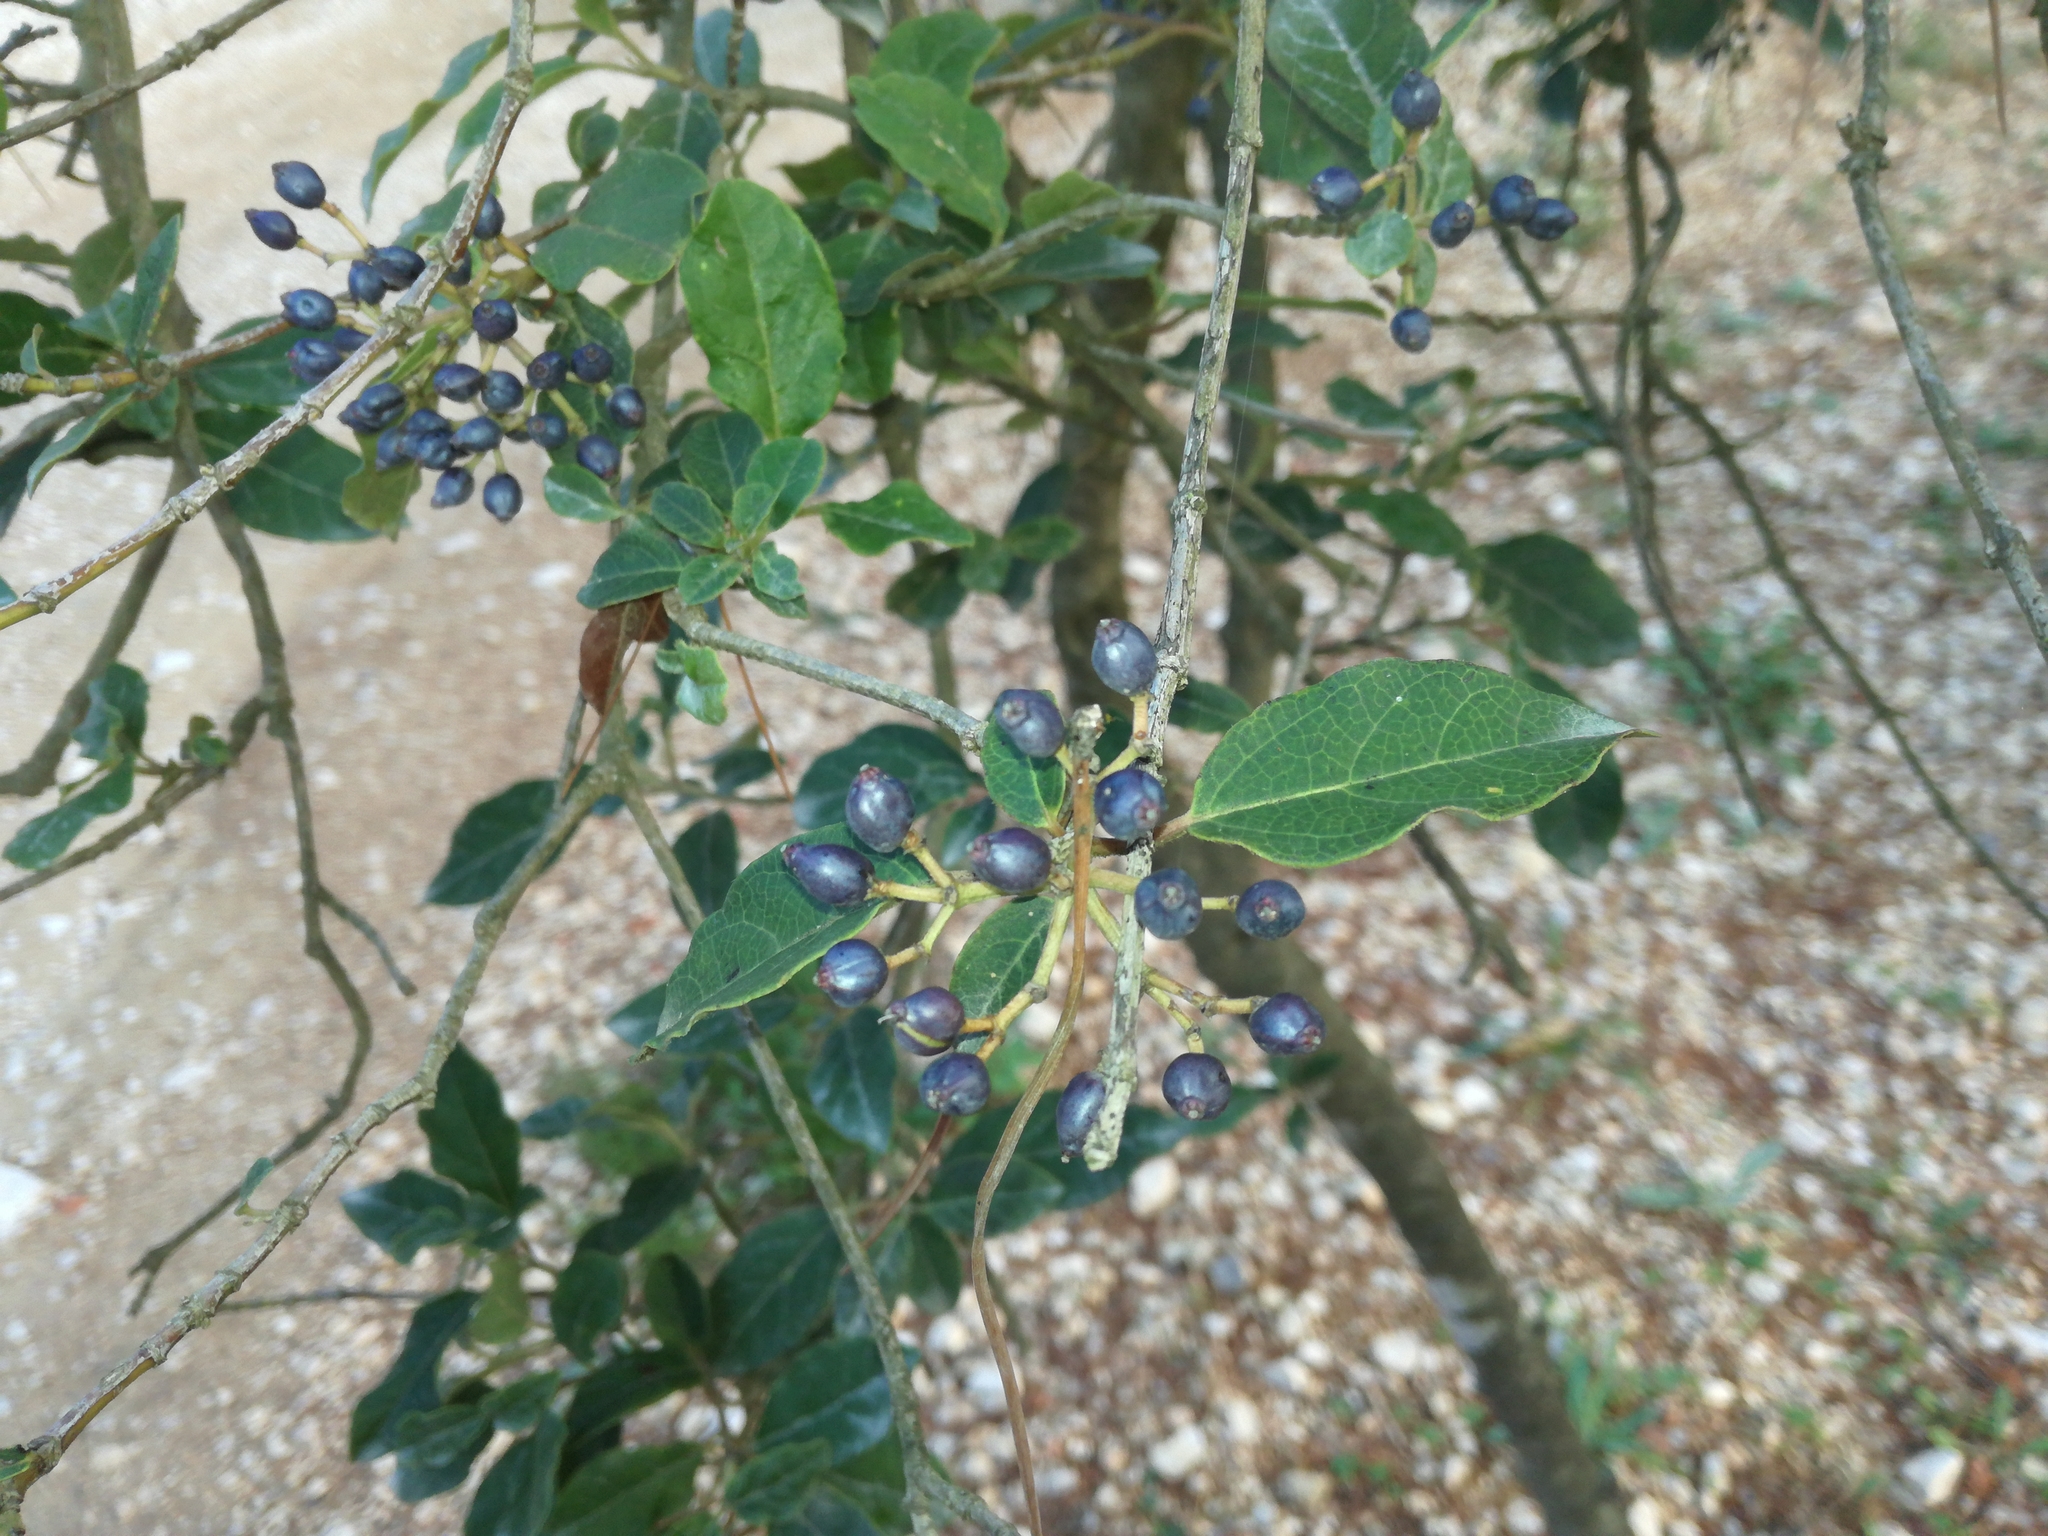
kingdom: Plantae
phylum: Tracheophyta
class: Magnoliopsida
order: Dipsacales
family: Viburnaceae
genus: Viburnum
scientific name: Viburnum tinus
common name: Laurustinus
